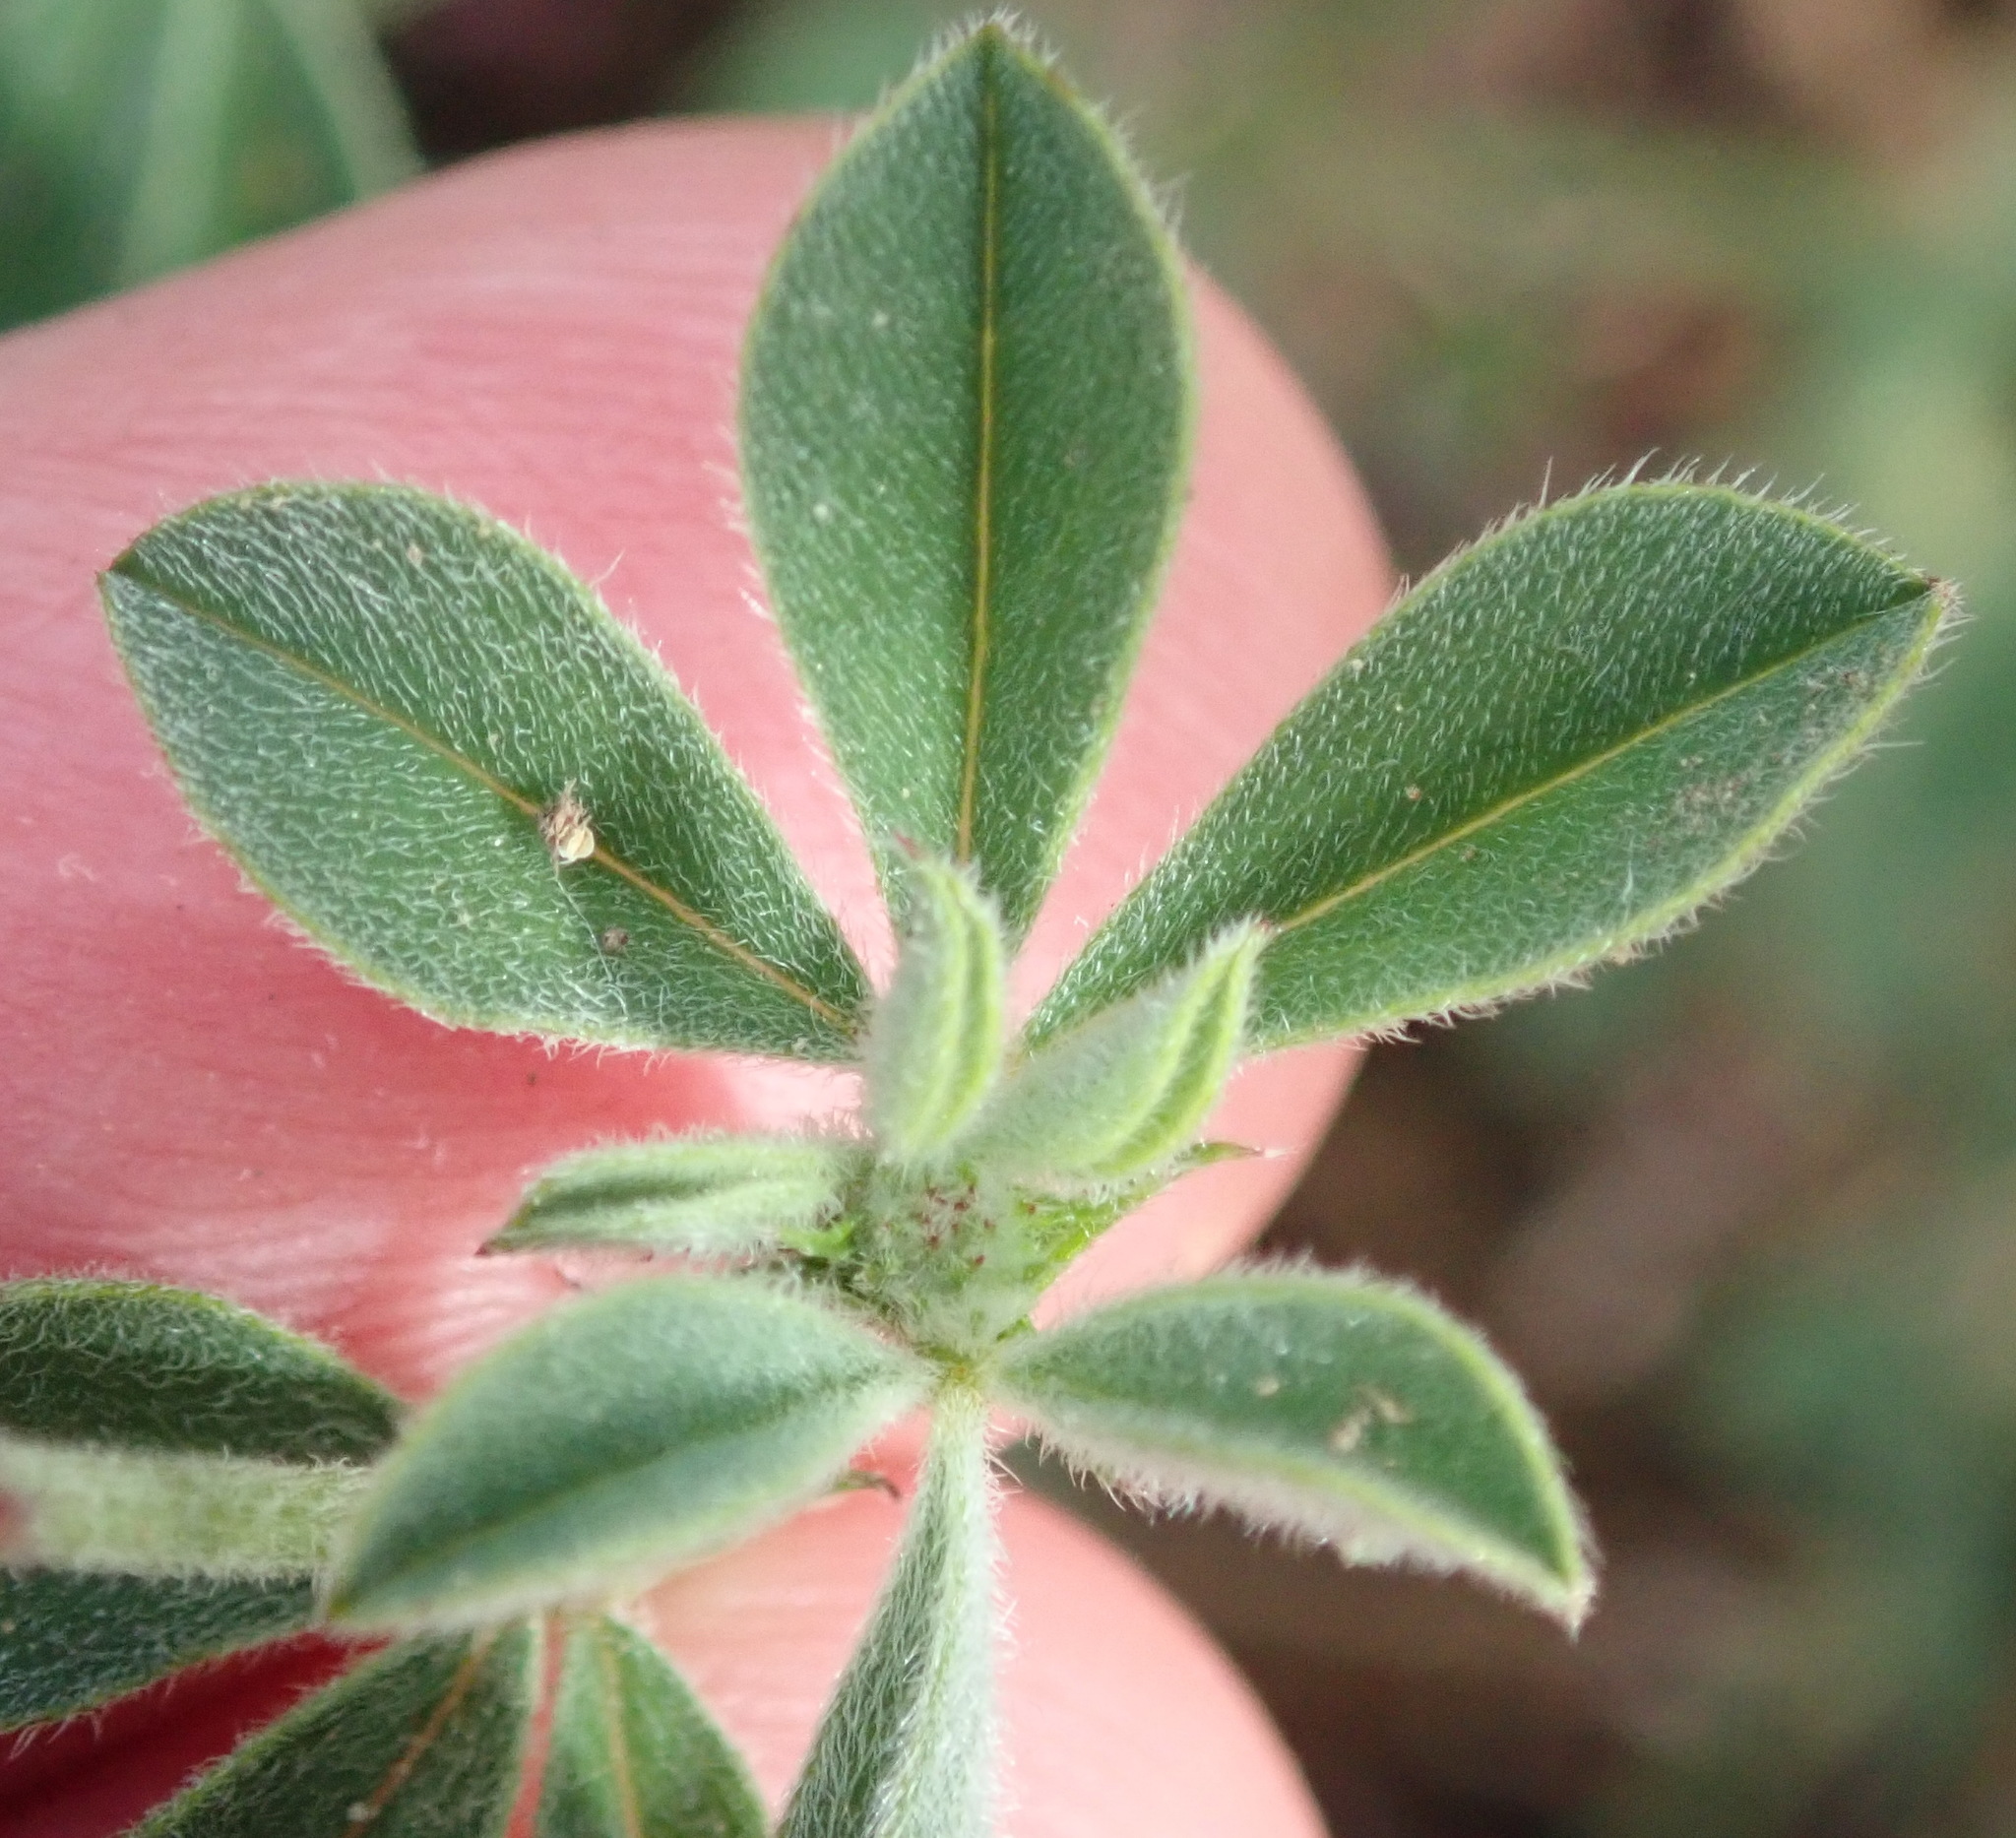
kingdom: Plantae
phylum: Tracheophyta
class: Magnoliopsida
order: Fabales
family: Fabaceae
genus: Indigofera
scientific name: Indigofera incana
